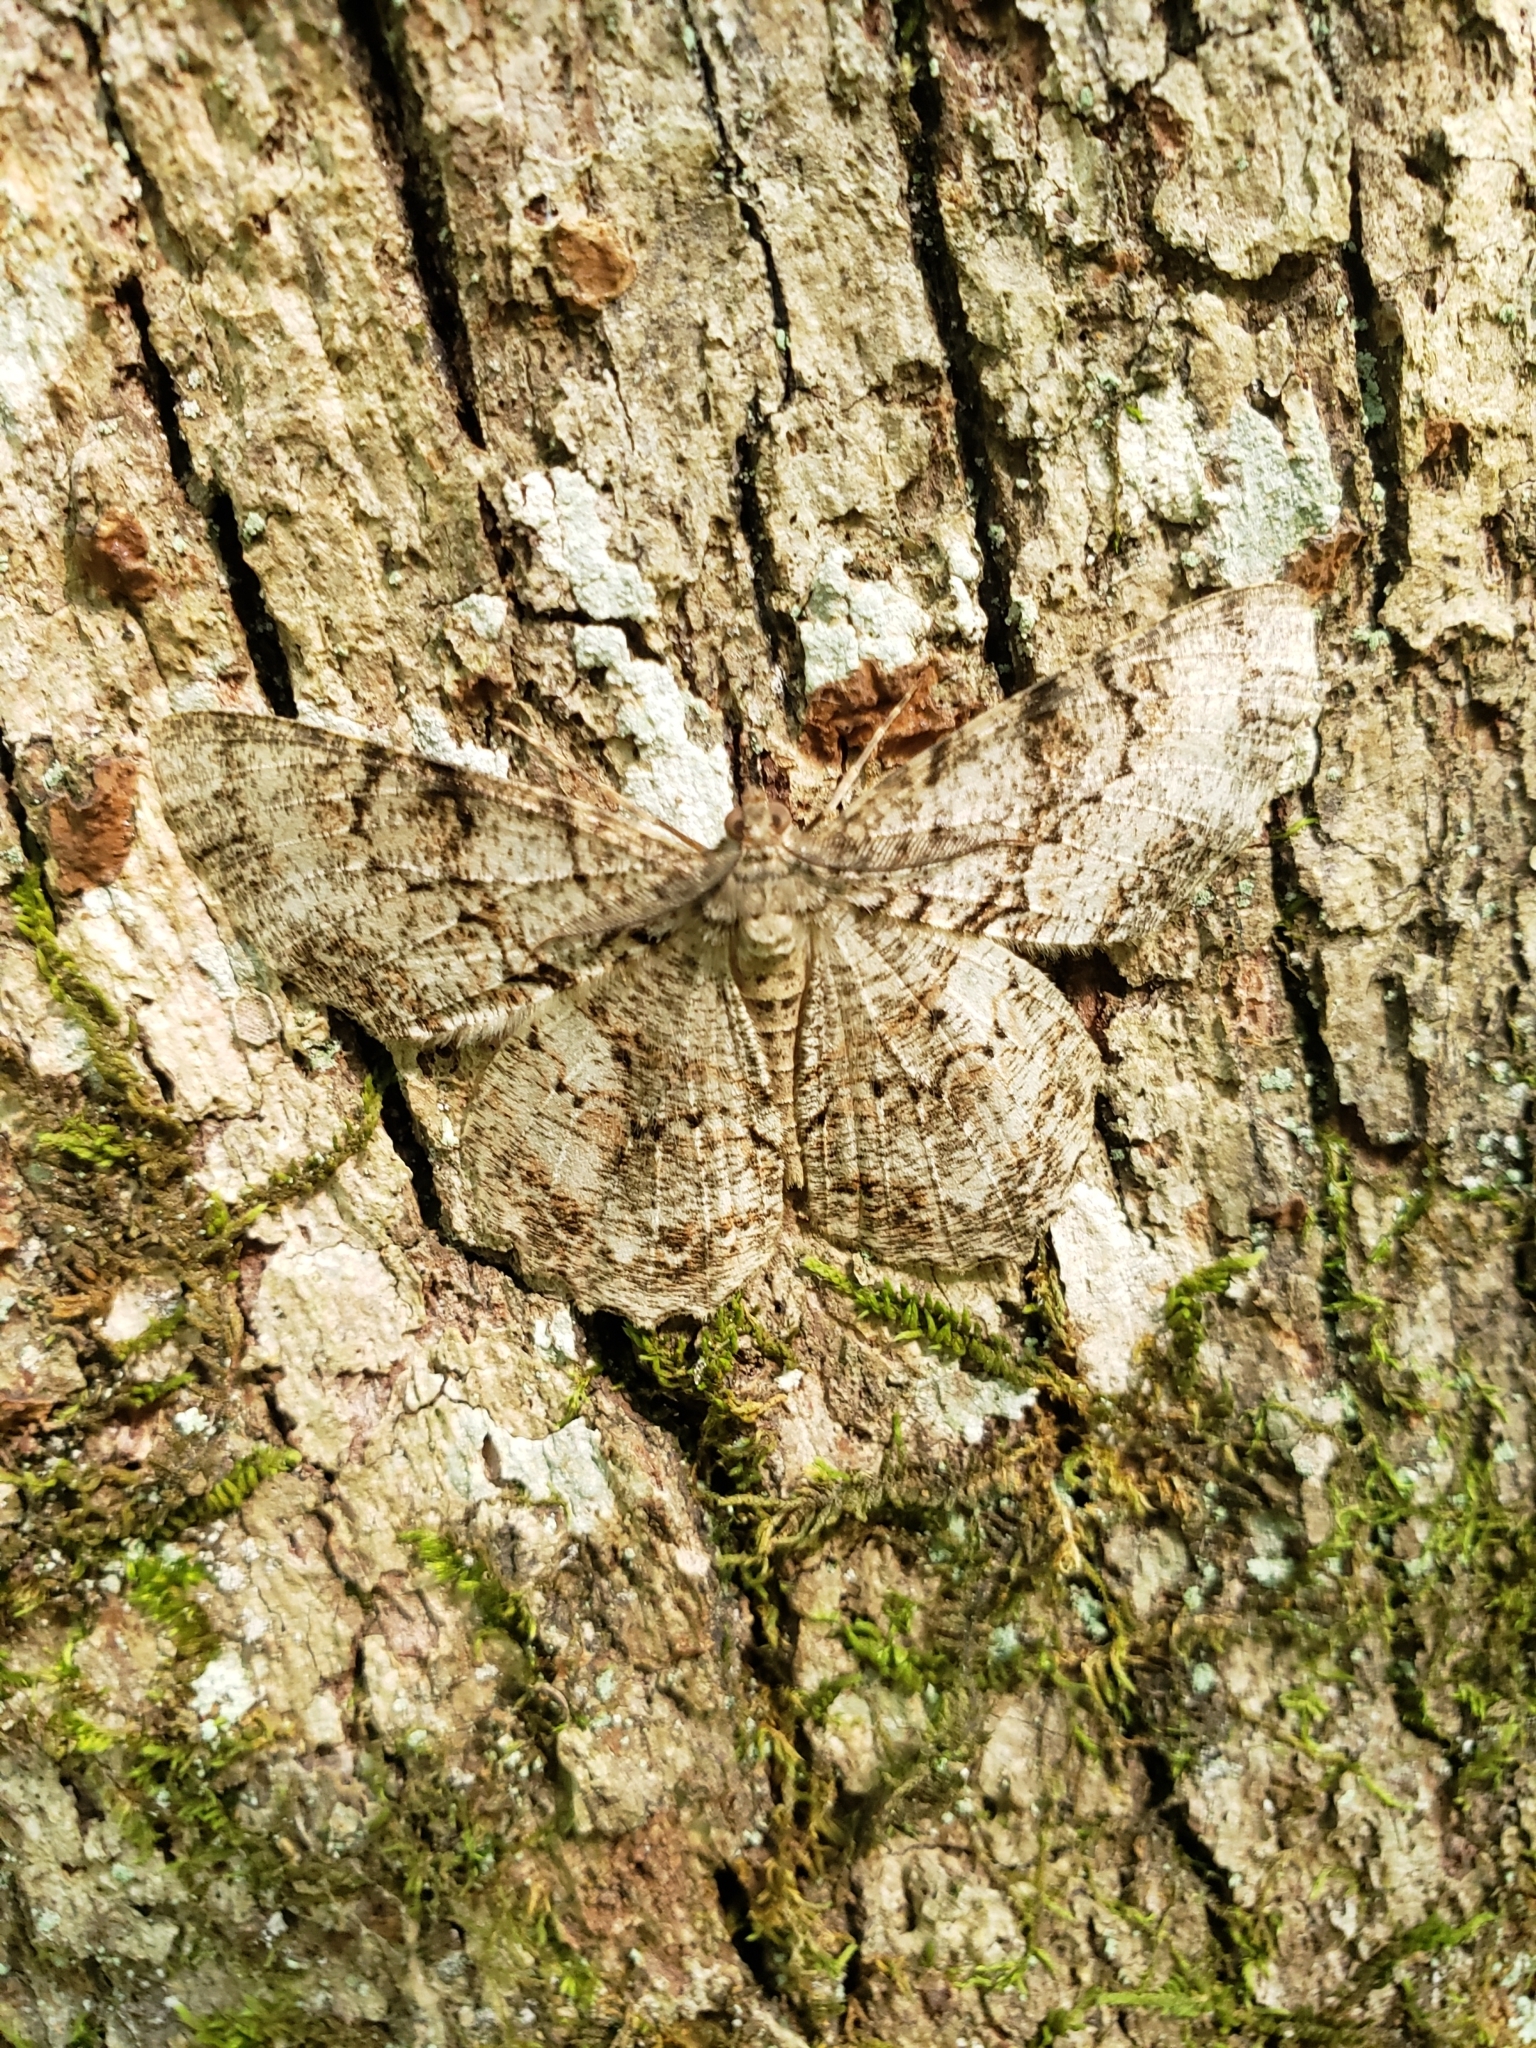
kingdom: Animalia
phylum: Arthropoda
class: Insecta
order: Lepidoptera
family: Geometridae
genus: Epimecis
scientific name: Epimecis hortaria
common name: Tulip-tree beauty
